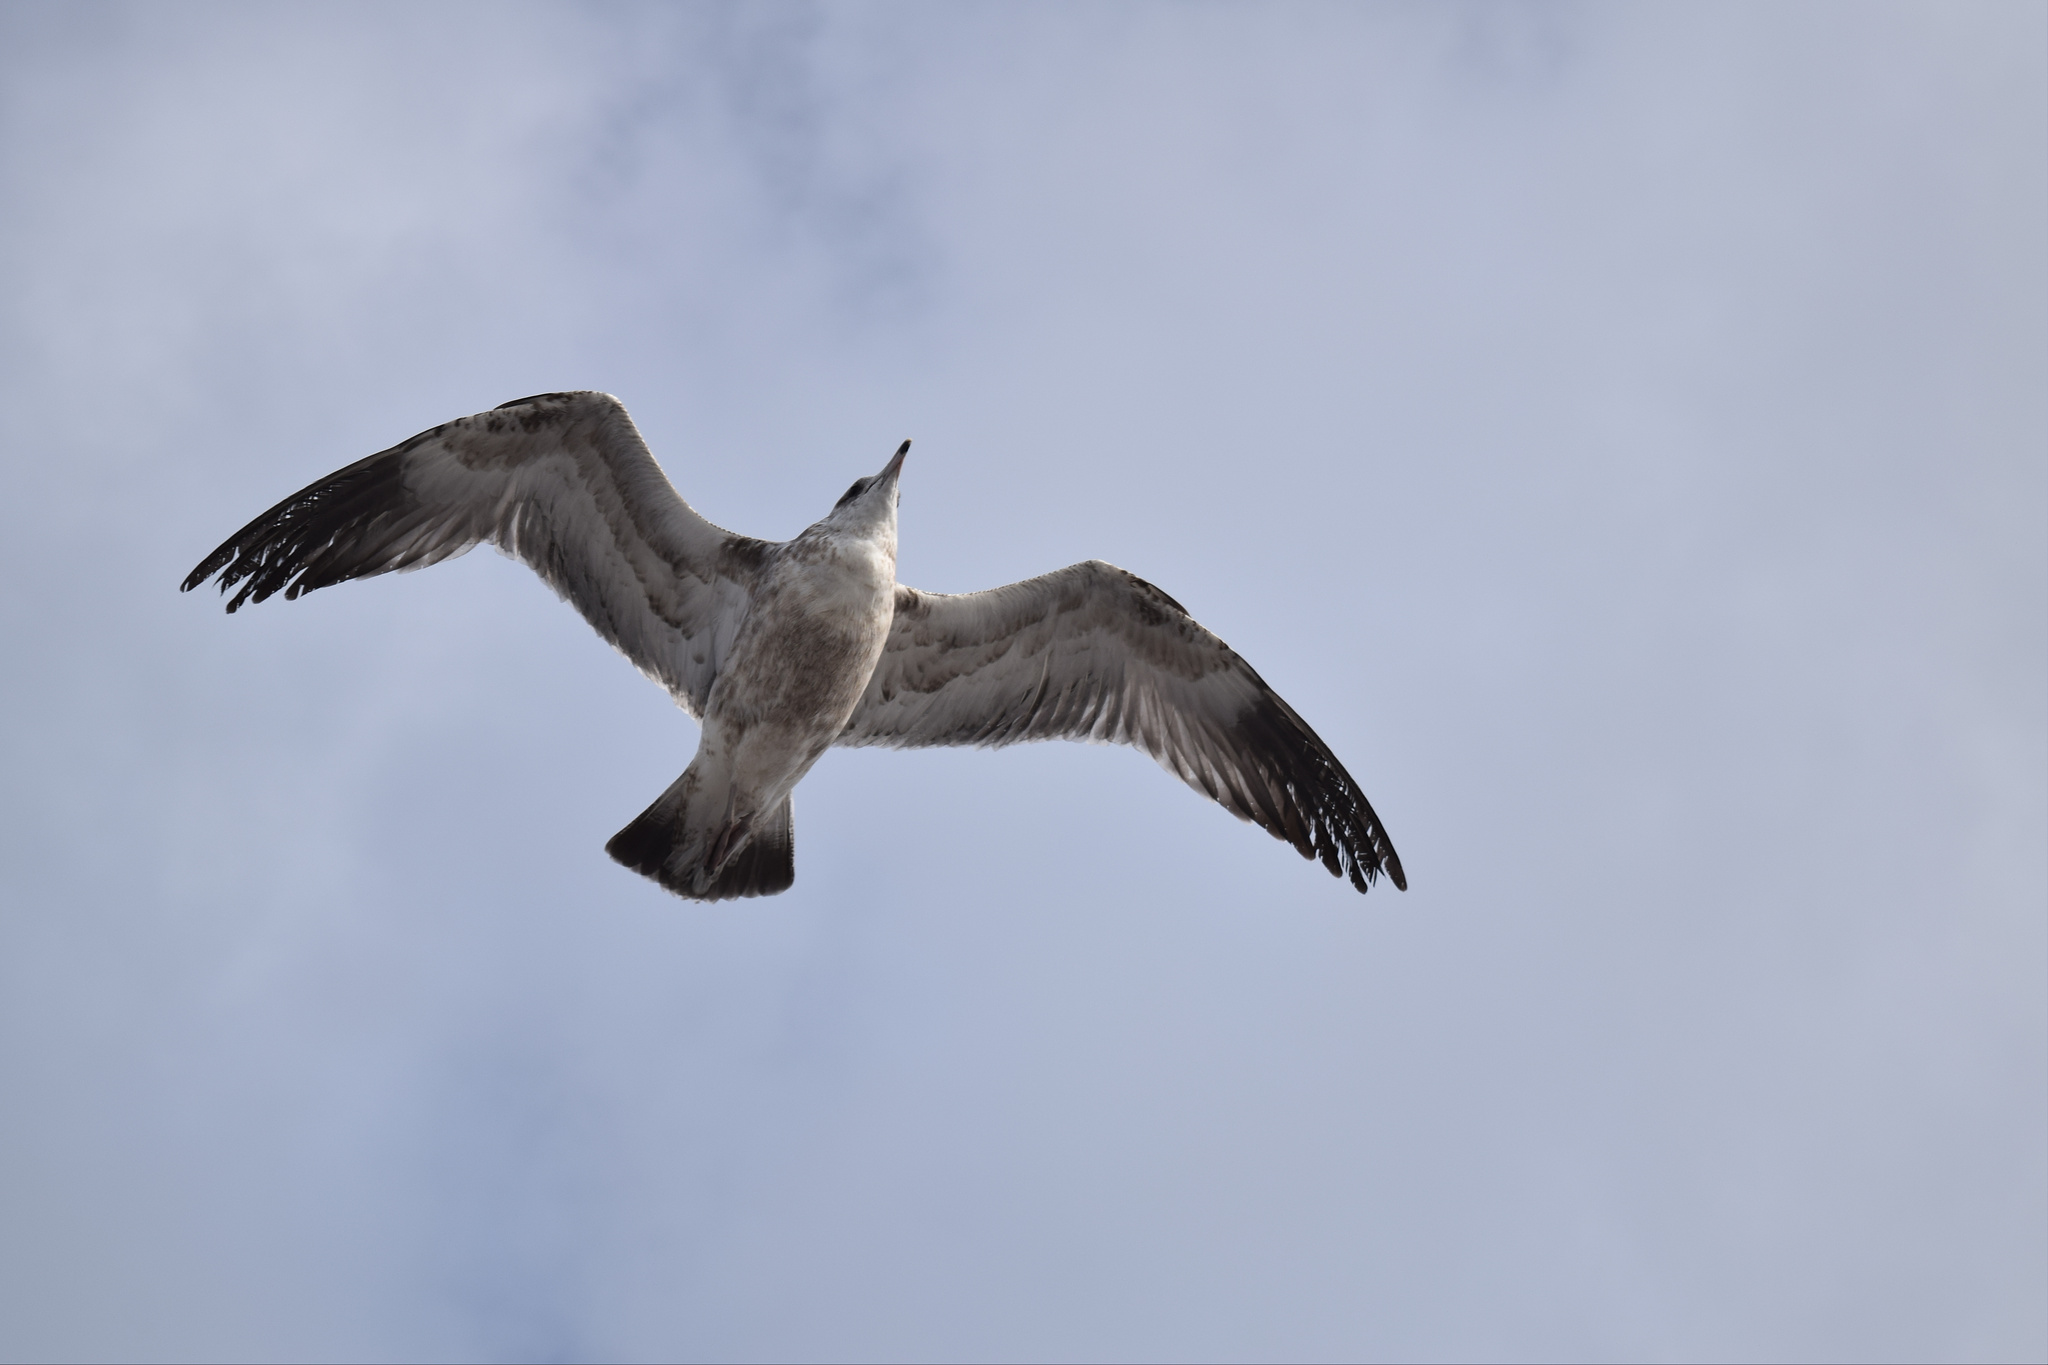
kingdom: Animalia
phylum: Chordata
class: Aves
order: Charadriiformes
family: Laridae
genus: Larus
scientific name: Larus californicus
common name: California gull
